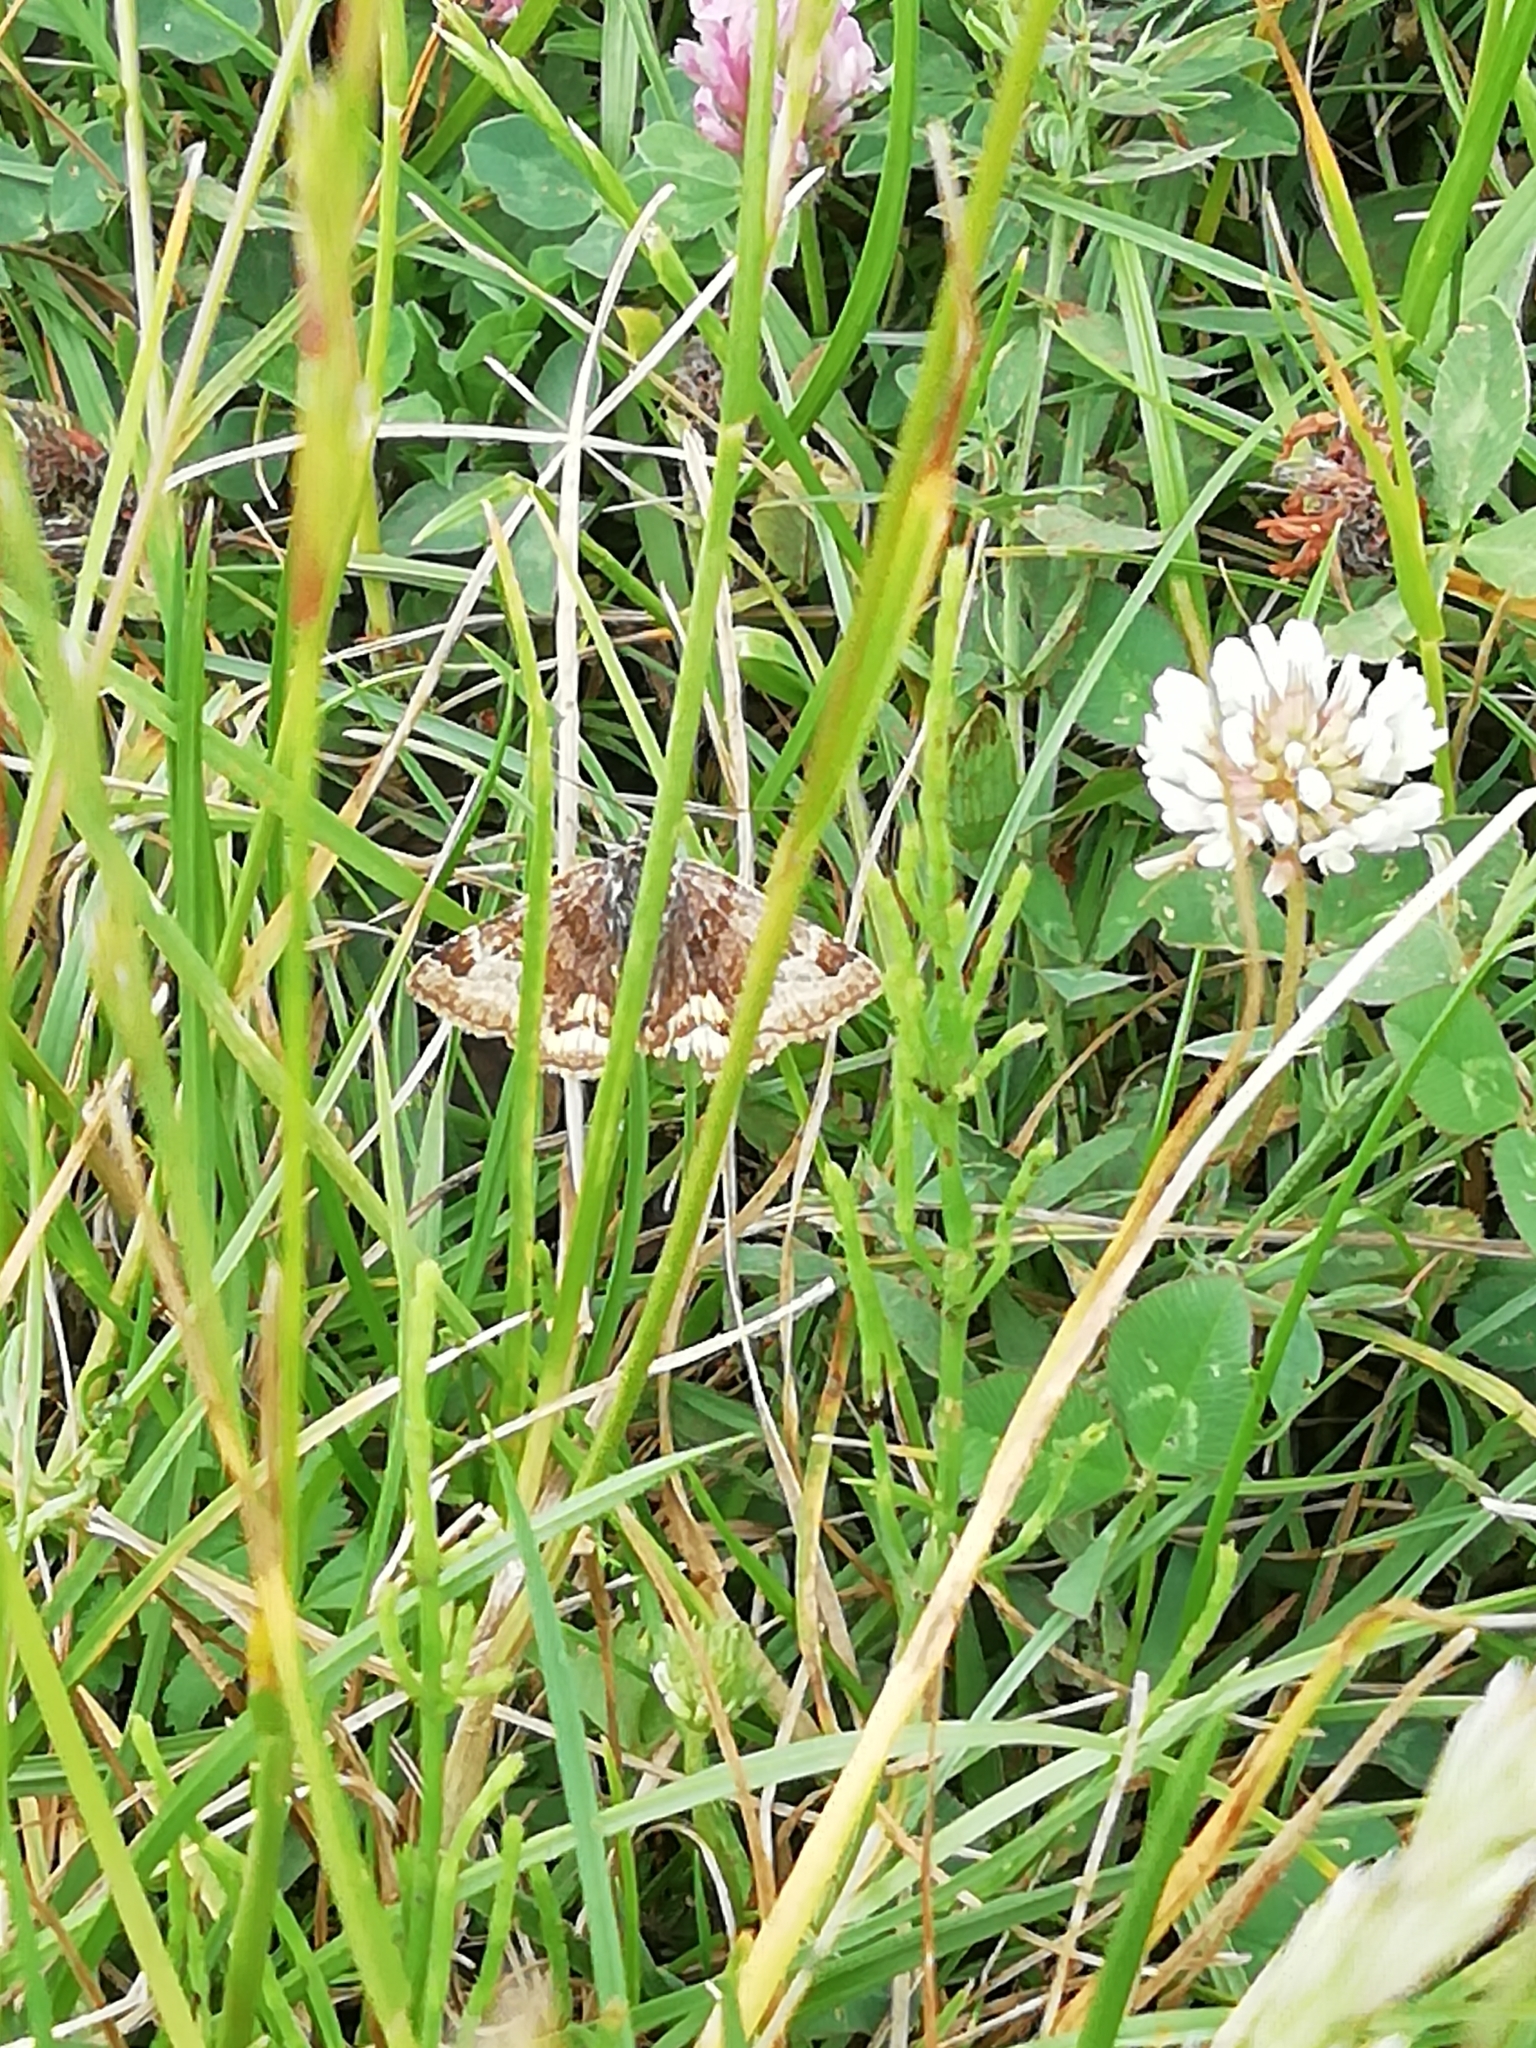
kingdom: Animalia
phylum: Arthropoda
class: Insecta
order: Lepidoptera
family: Erebidae
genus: Euclidia
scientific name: Euclidia glyphica
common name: Burnet companion
